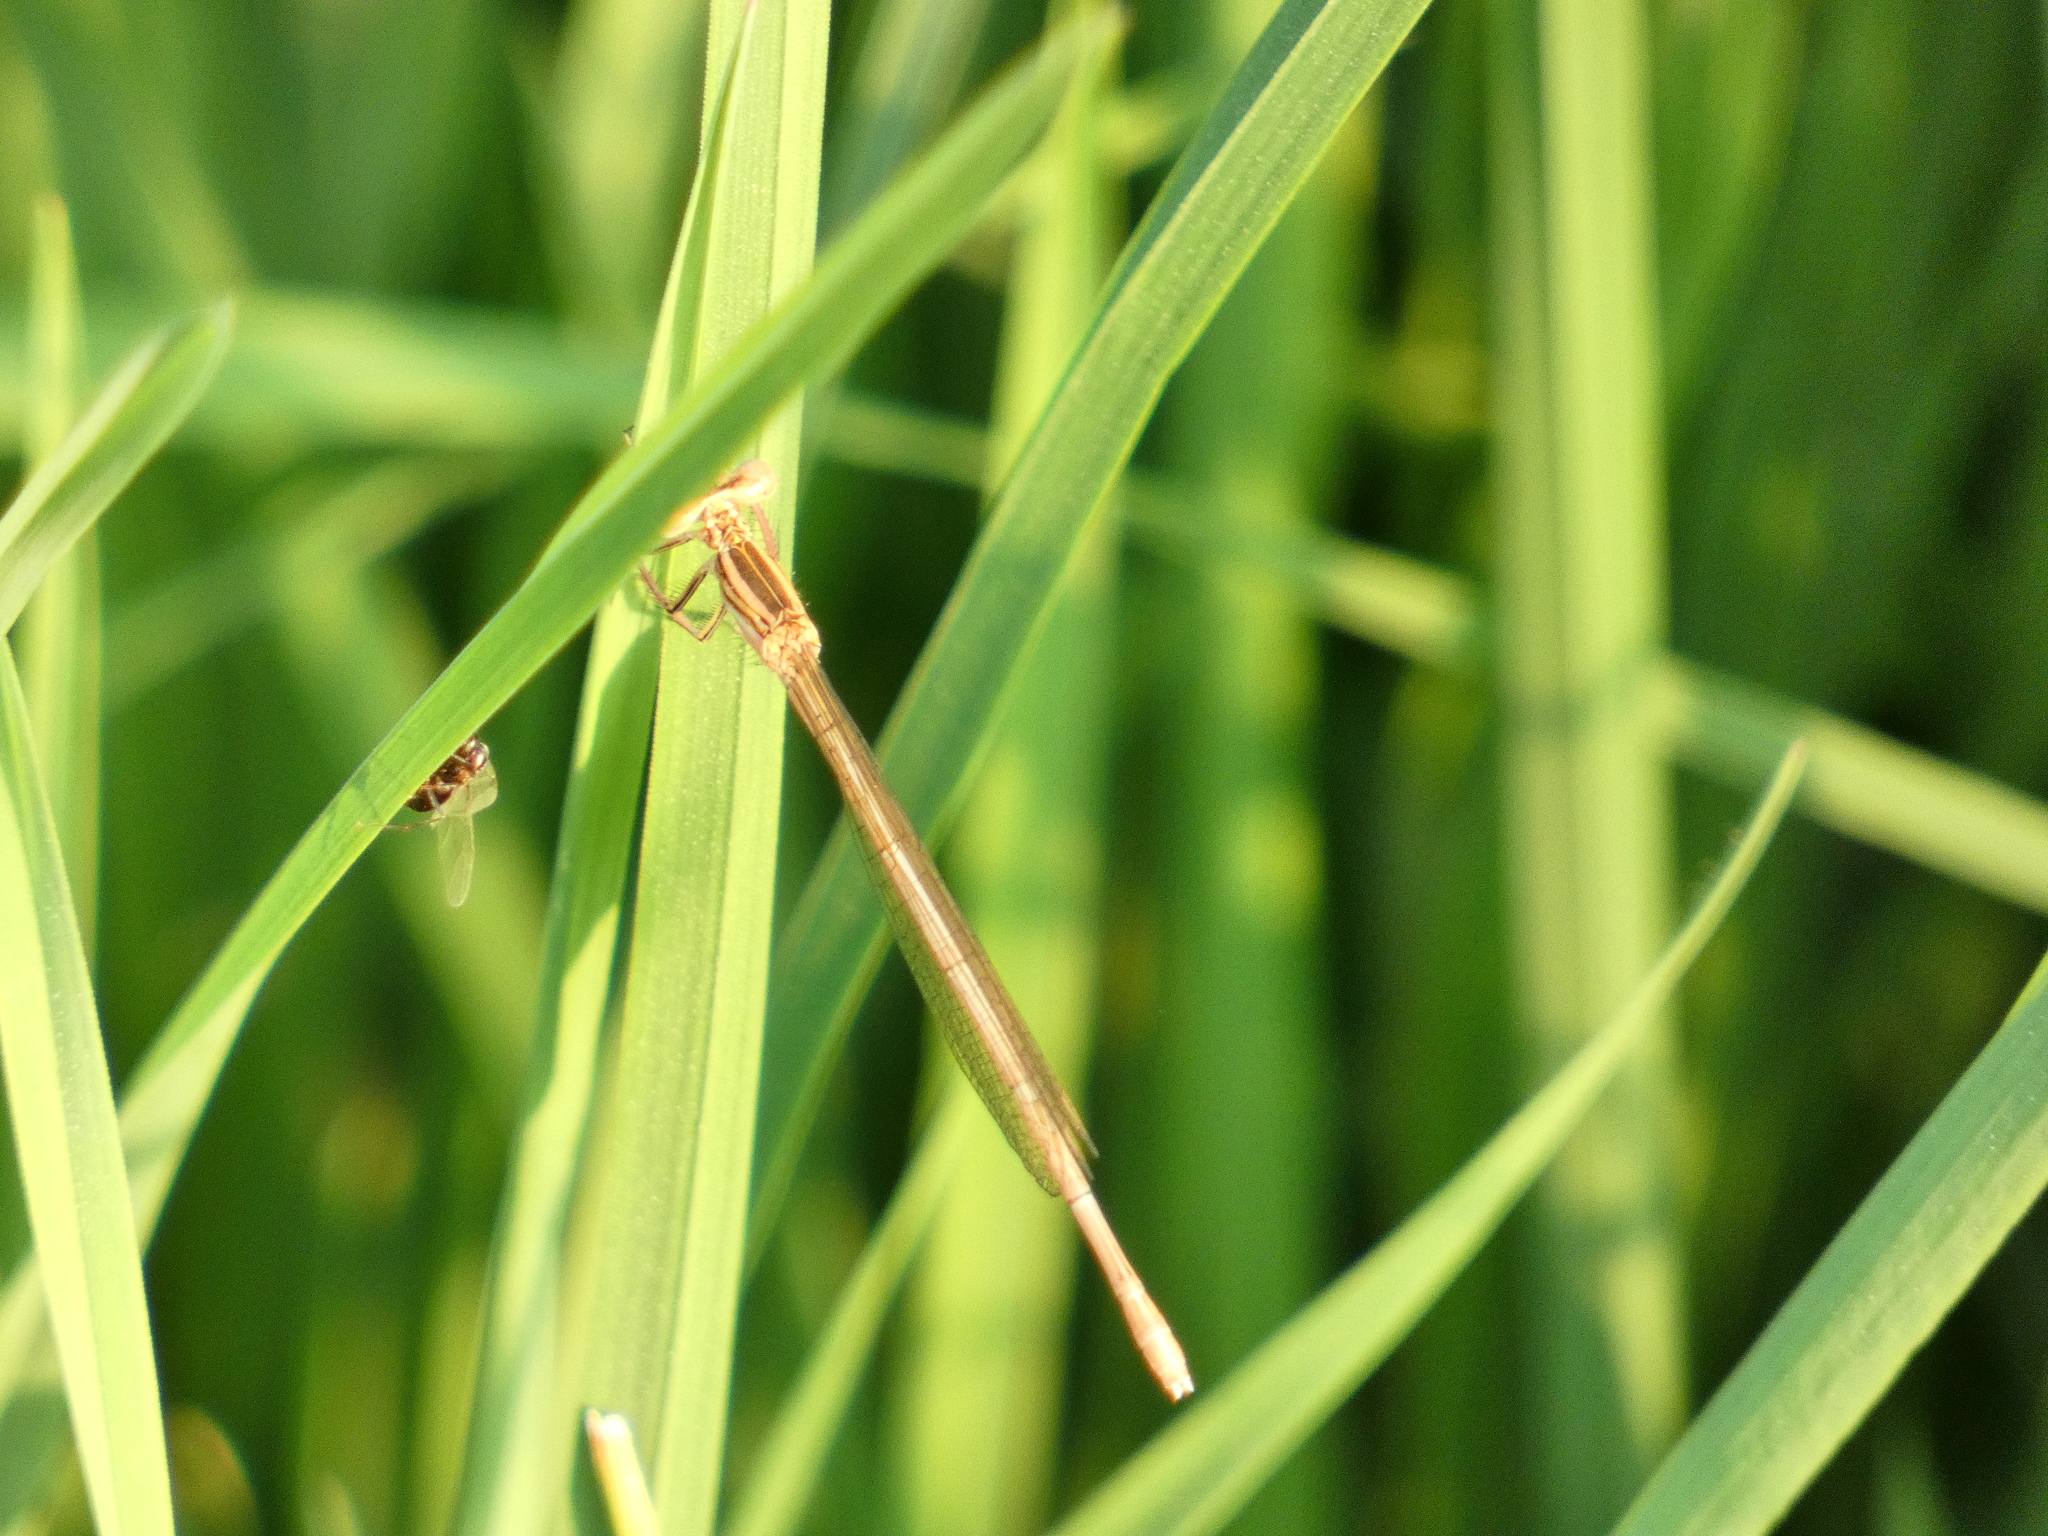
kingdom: Animalia
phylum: Arthropoda
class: Insecta
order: Odonata
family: Platycnemididae
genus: Platycnemis
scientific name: Platycnemis pennipes
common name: White-legged damselfly
